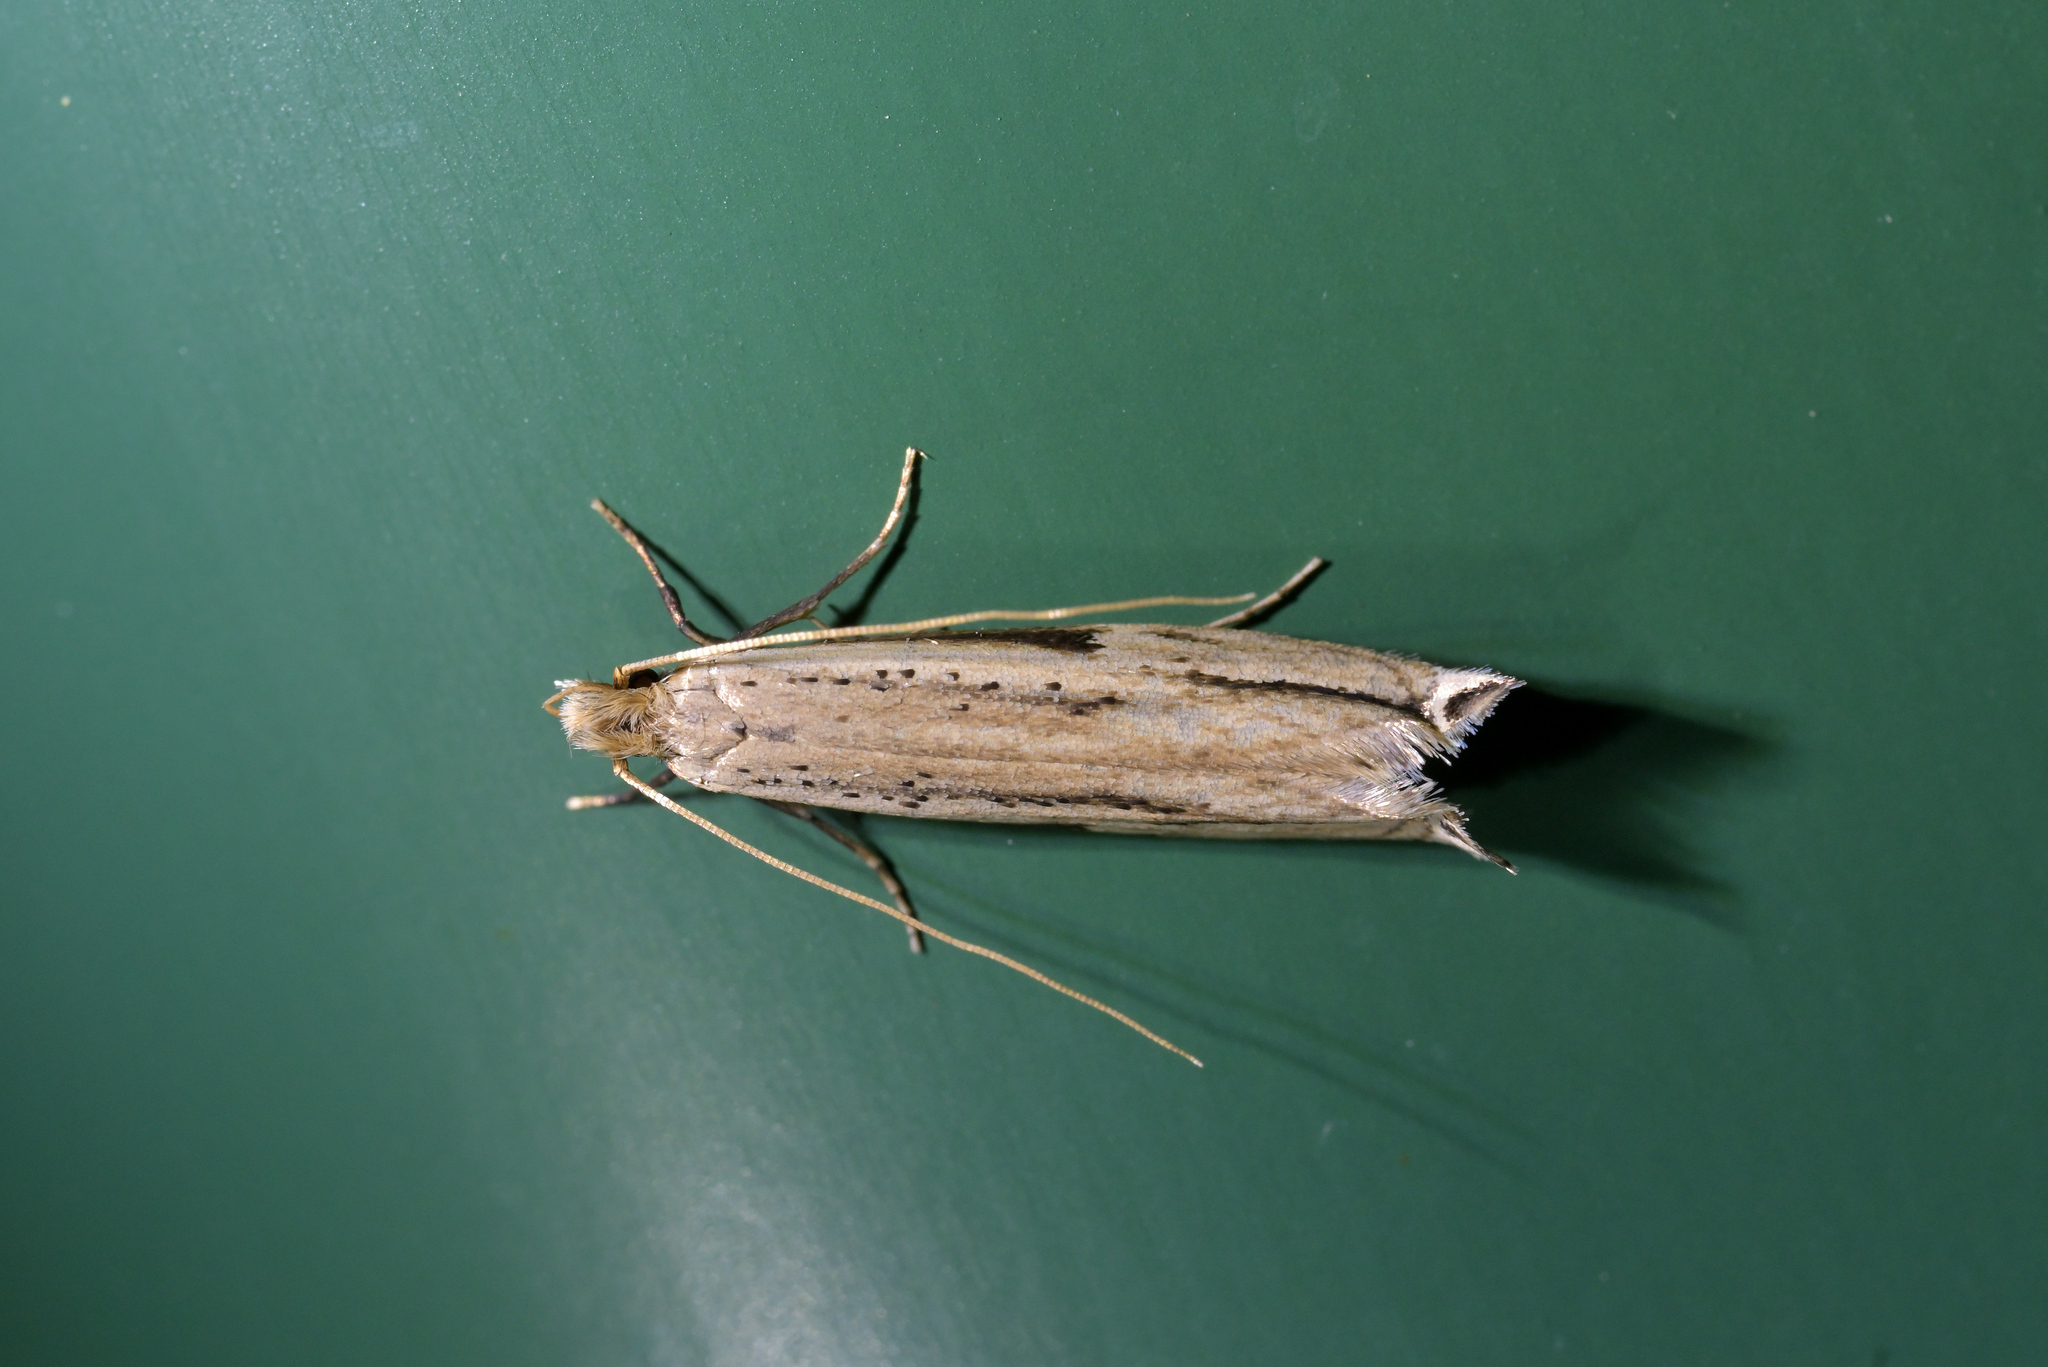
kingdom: Animalia
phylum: Arthropoda
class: Insecta
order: Lepidoptera
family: Tineidae
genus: Erechthias
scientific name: Erechthias hemiclistra
